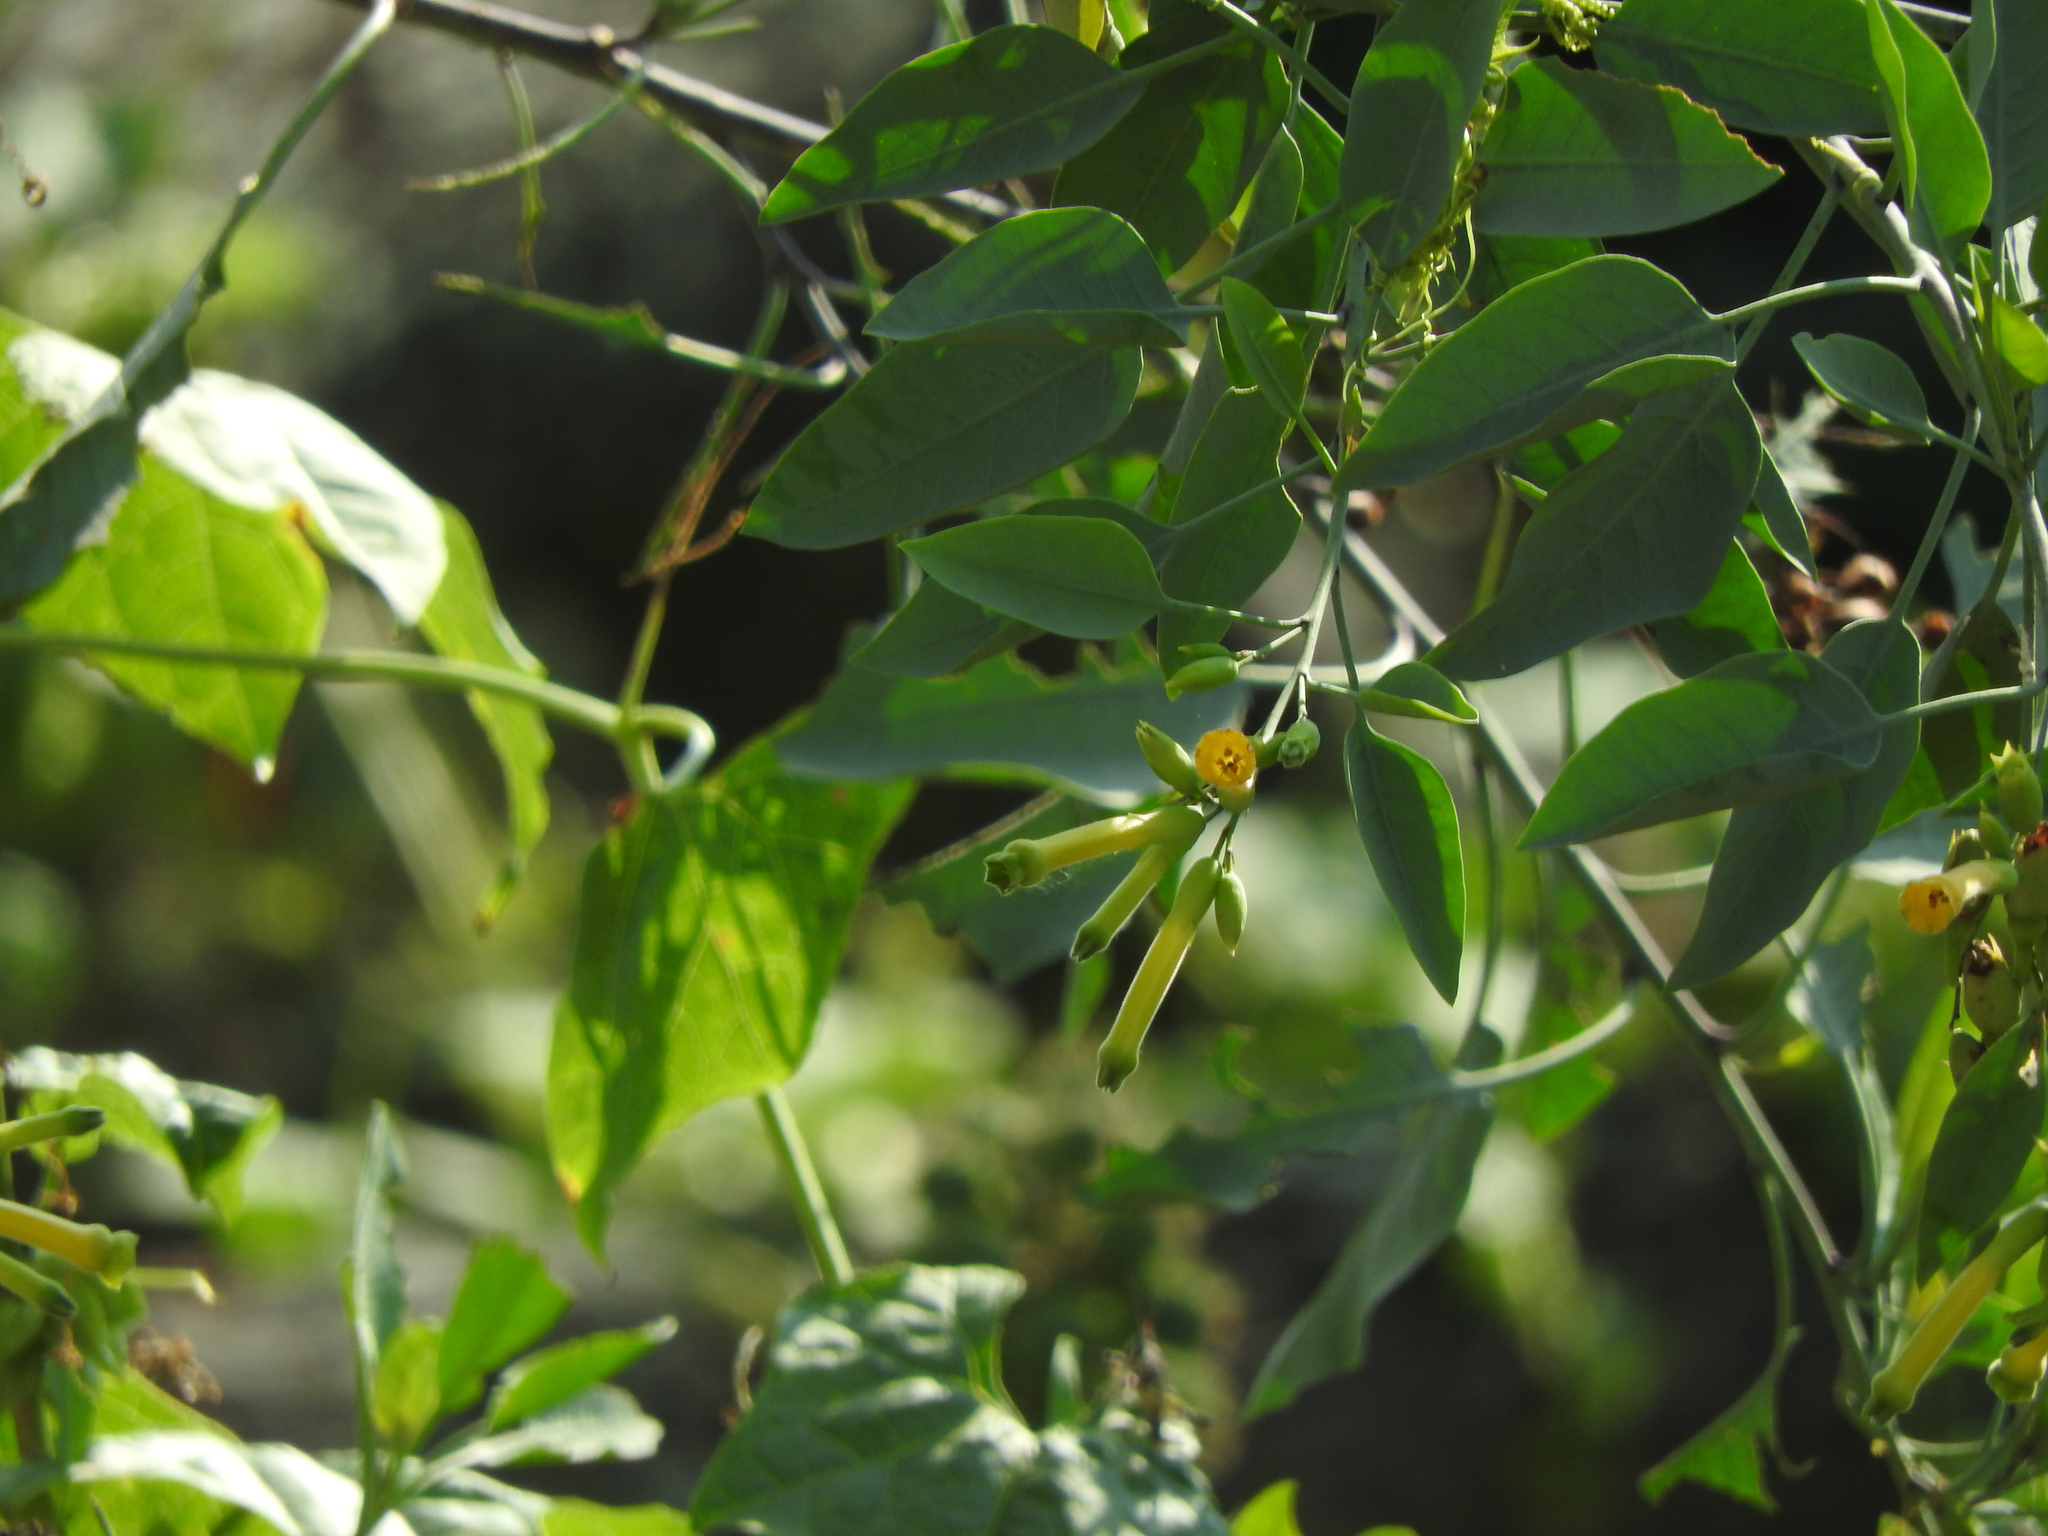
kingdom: Plantae
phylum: Tracheophyta
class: Magnoliopsida
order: Solanales
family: Solanaceae
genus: Nicotiana
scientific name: Nicotiana glauca
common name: Tree tobacco
